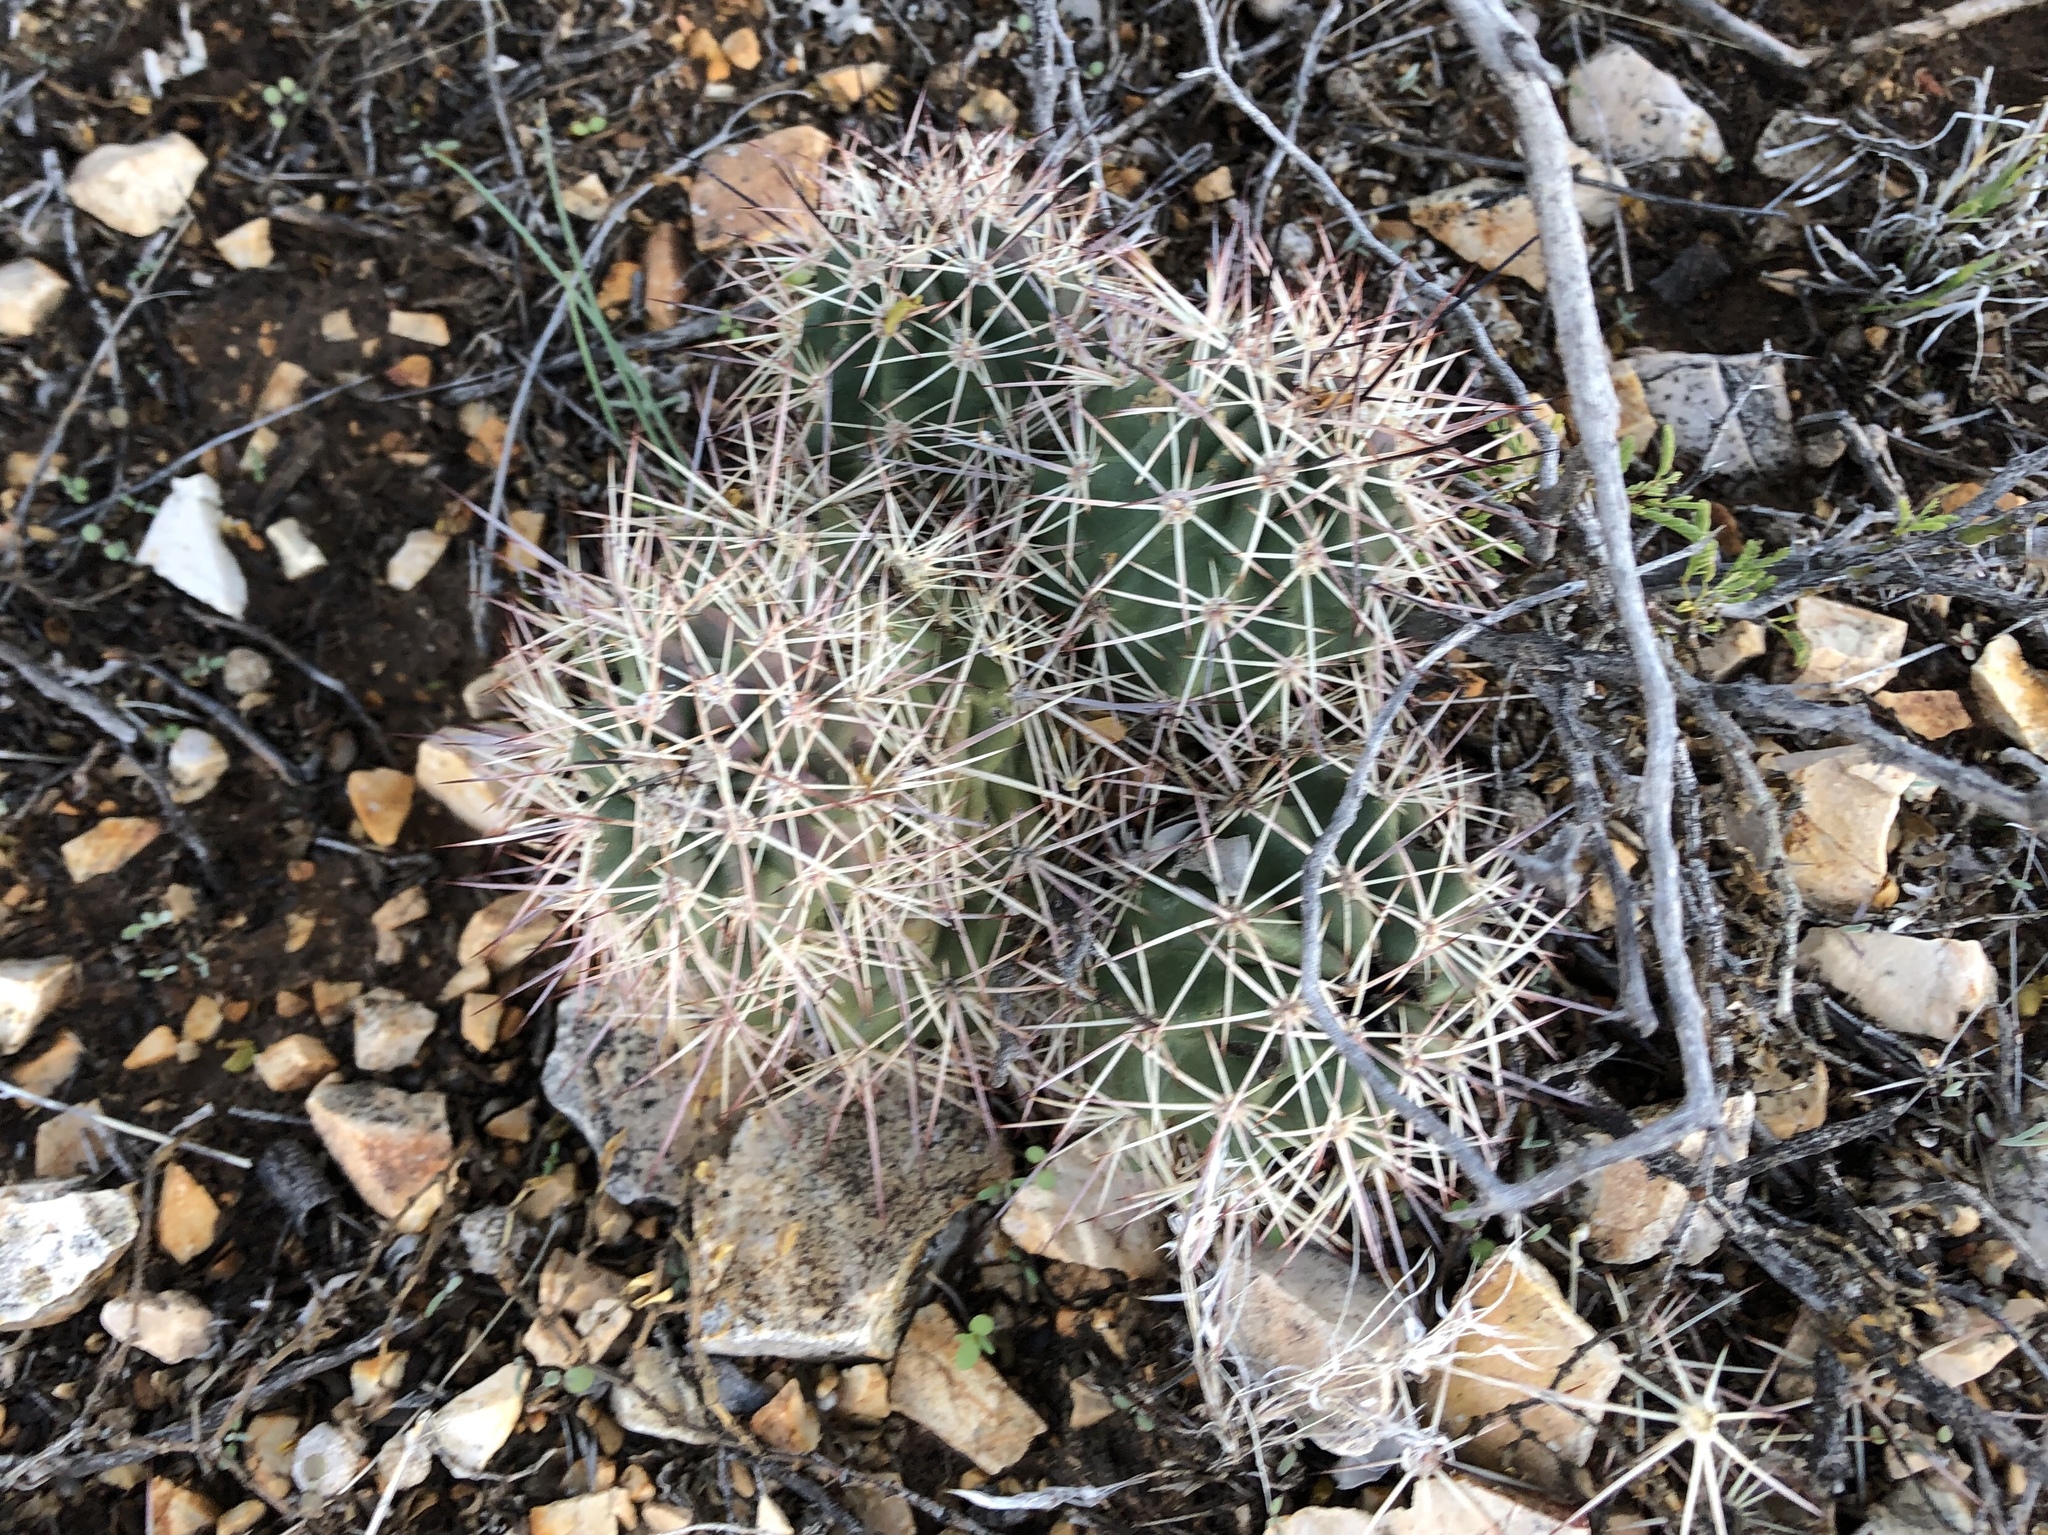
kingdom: Plantae
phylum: Tracheophyta
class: Magnoliopsida
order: Caryophyllales
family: Cactaceae
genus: Echinocereus
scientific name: Echinocereus coccineus
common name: Scarlet hedgehog cactus
